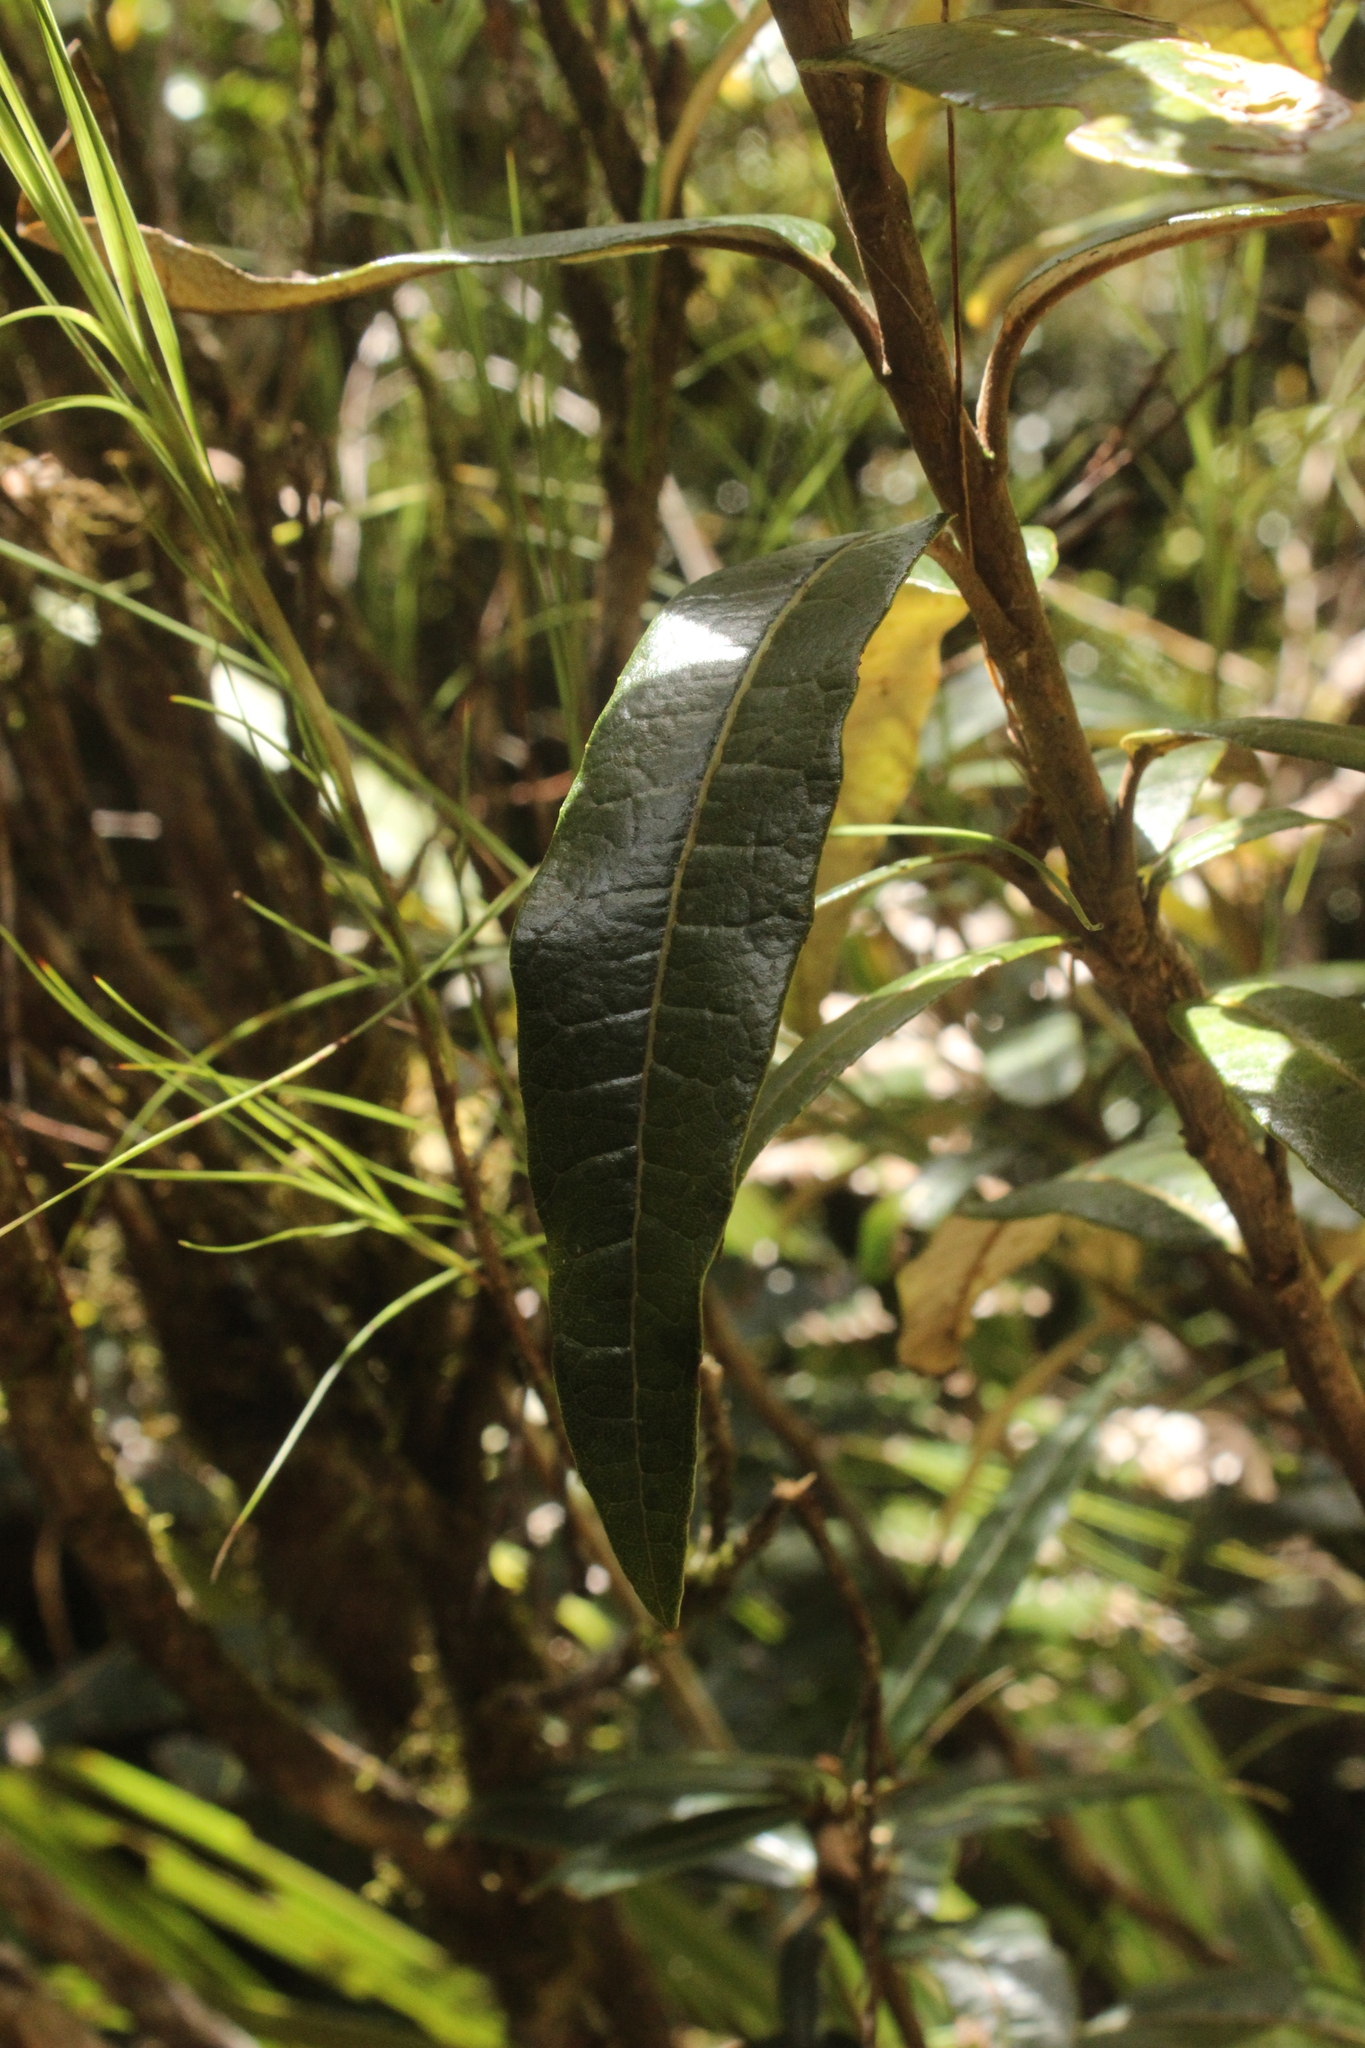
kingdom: Plantae
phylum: Tracheophyta
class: Magnoliopsida
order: Asterales
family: Asteraceae
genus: Olearia
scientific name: Olearia
